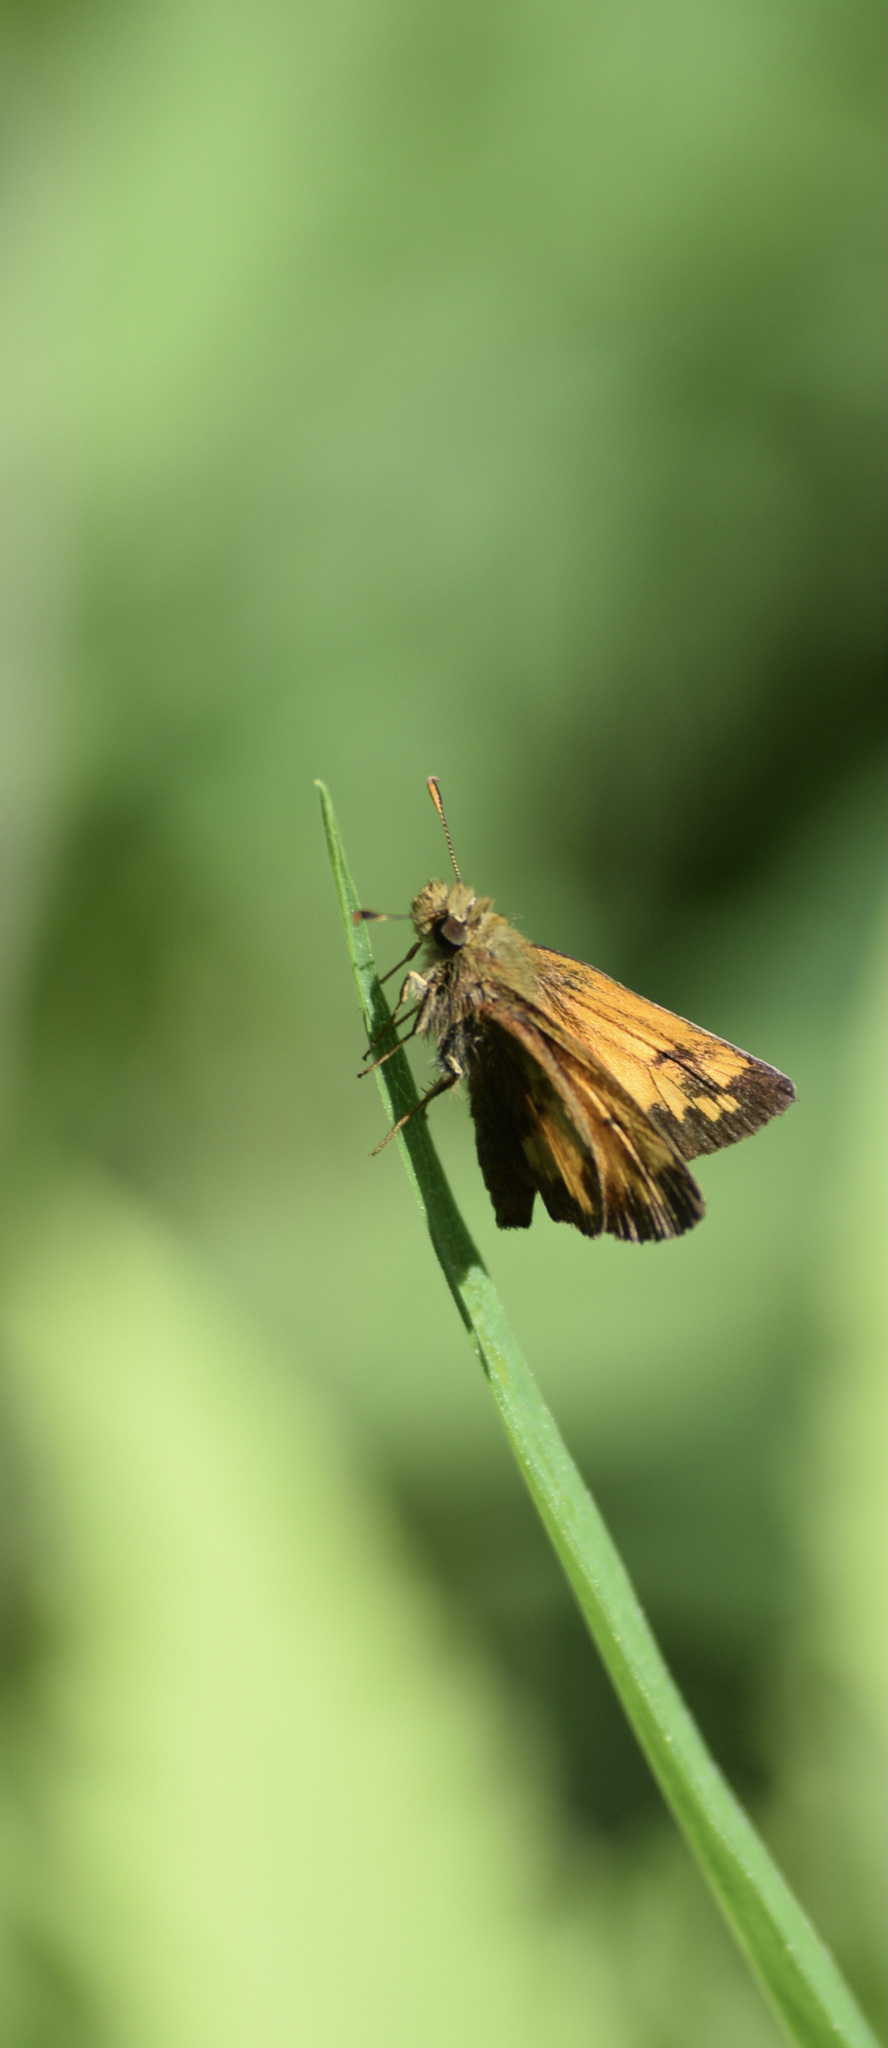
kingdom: Animalia
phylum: Arthropoda
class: Insecta
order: Lepidoptera
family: Hesperiidae
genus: Lon
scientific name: Lon hobomok
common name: Hobomok skipper
